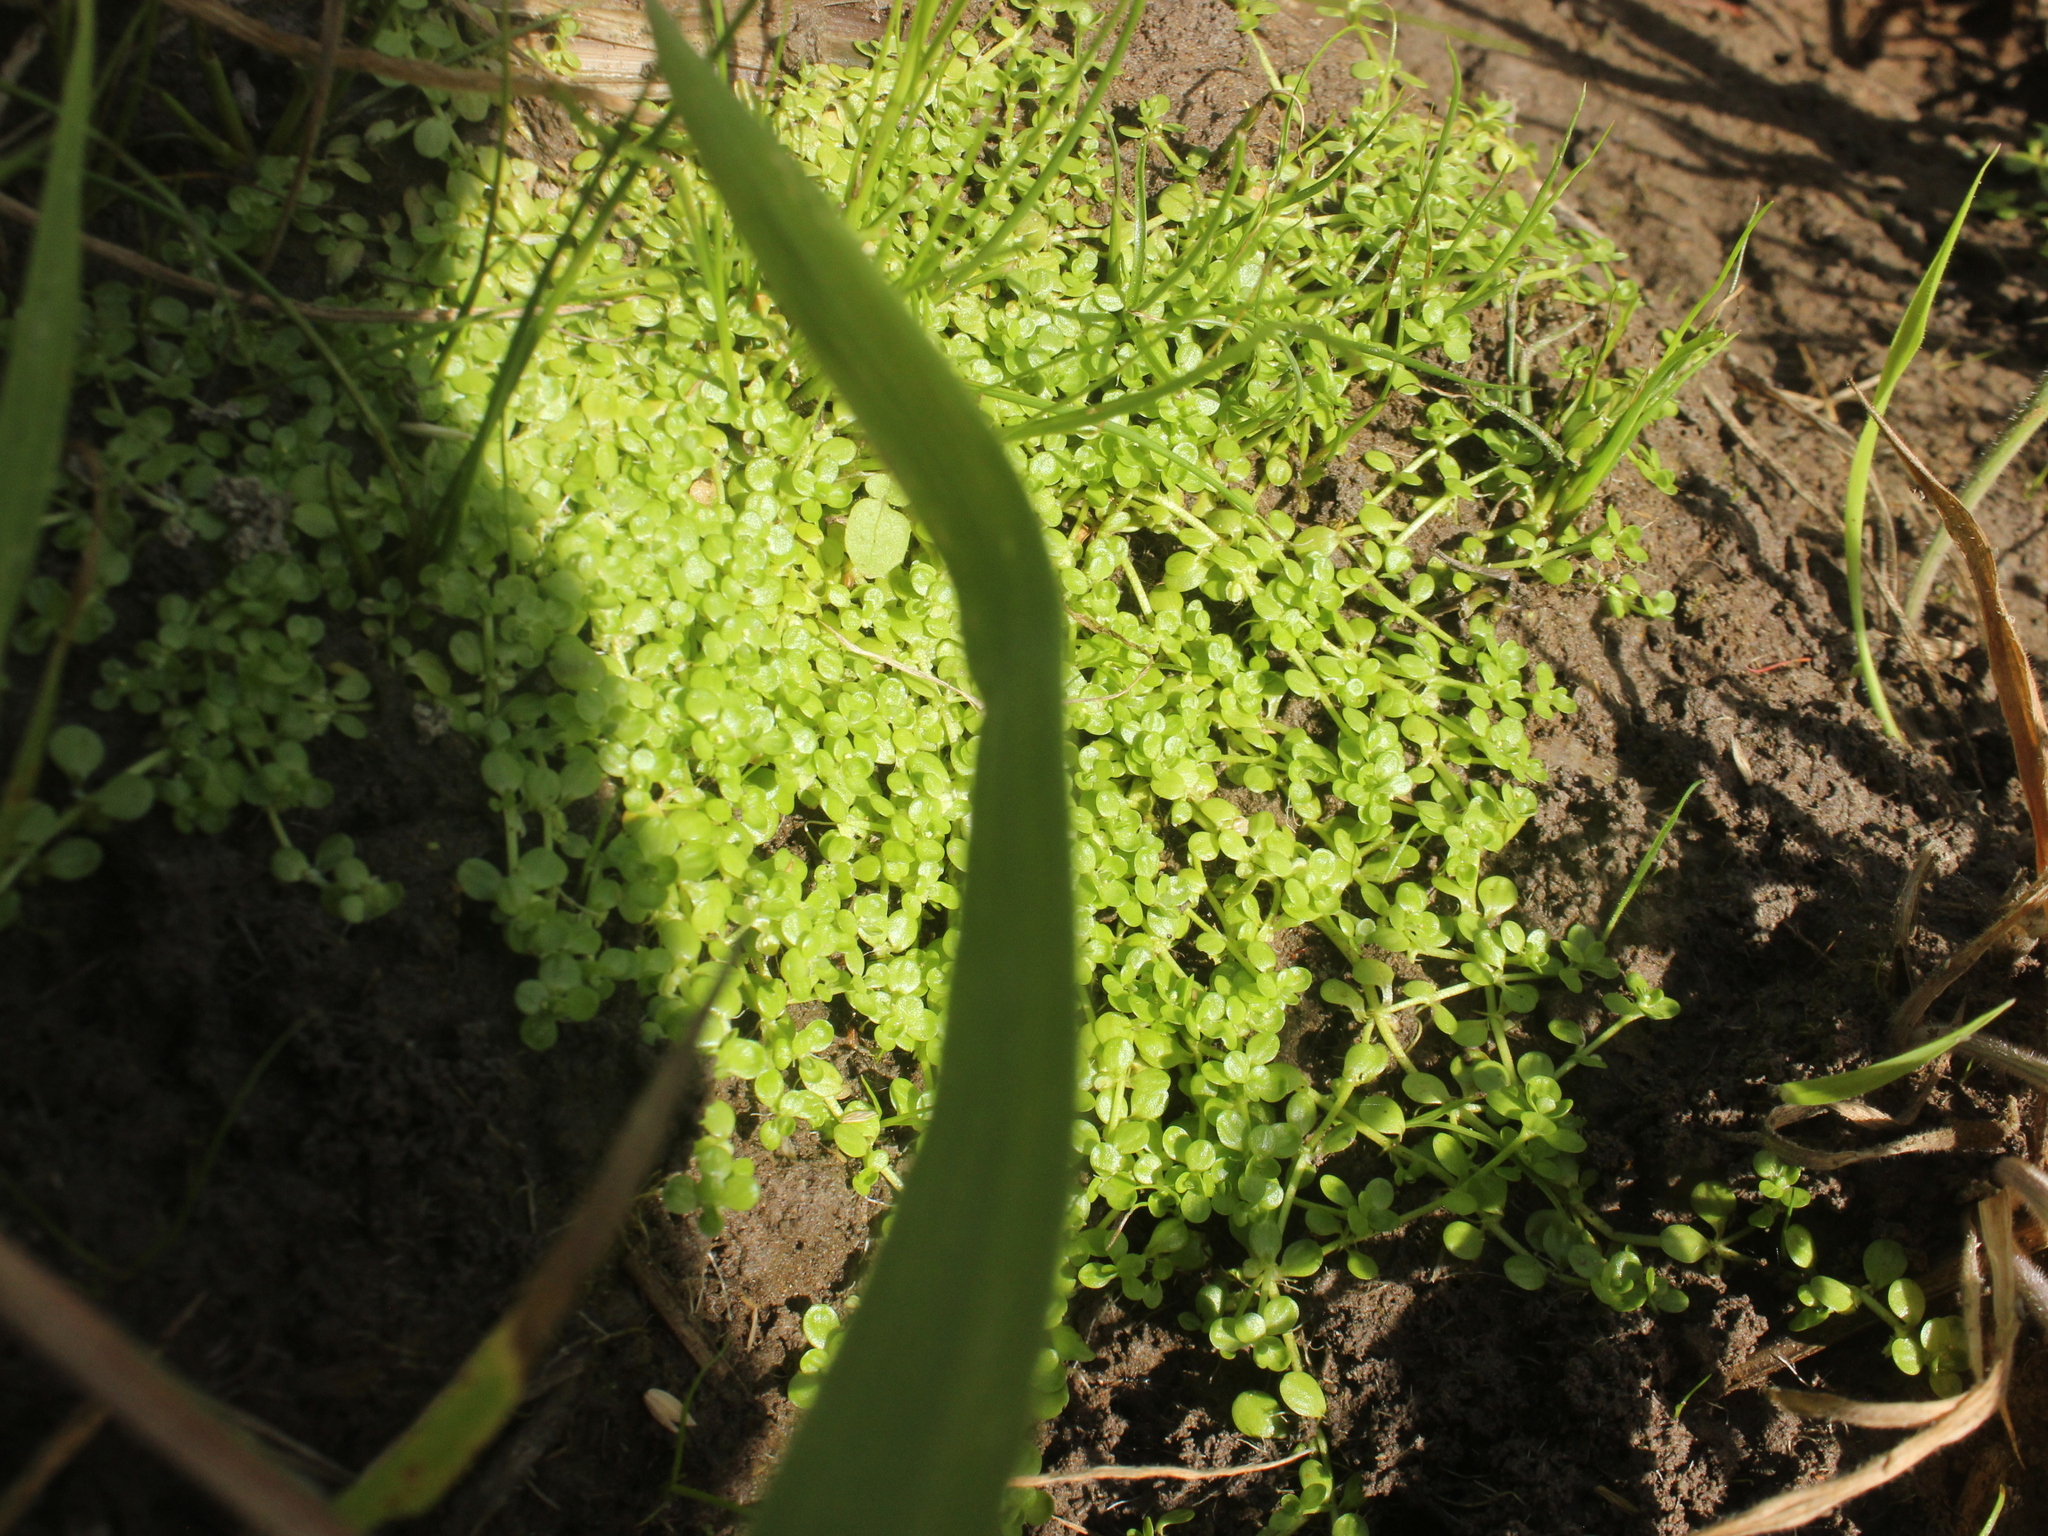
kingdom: Plantae
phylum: Tracheophyta
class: Magnoliopsida
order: Lamiales
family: Plantaginaceae
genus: Callitriche
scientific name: Callitriche muelleri
